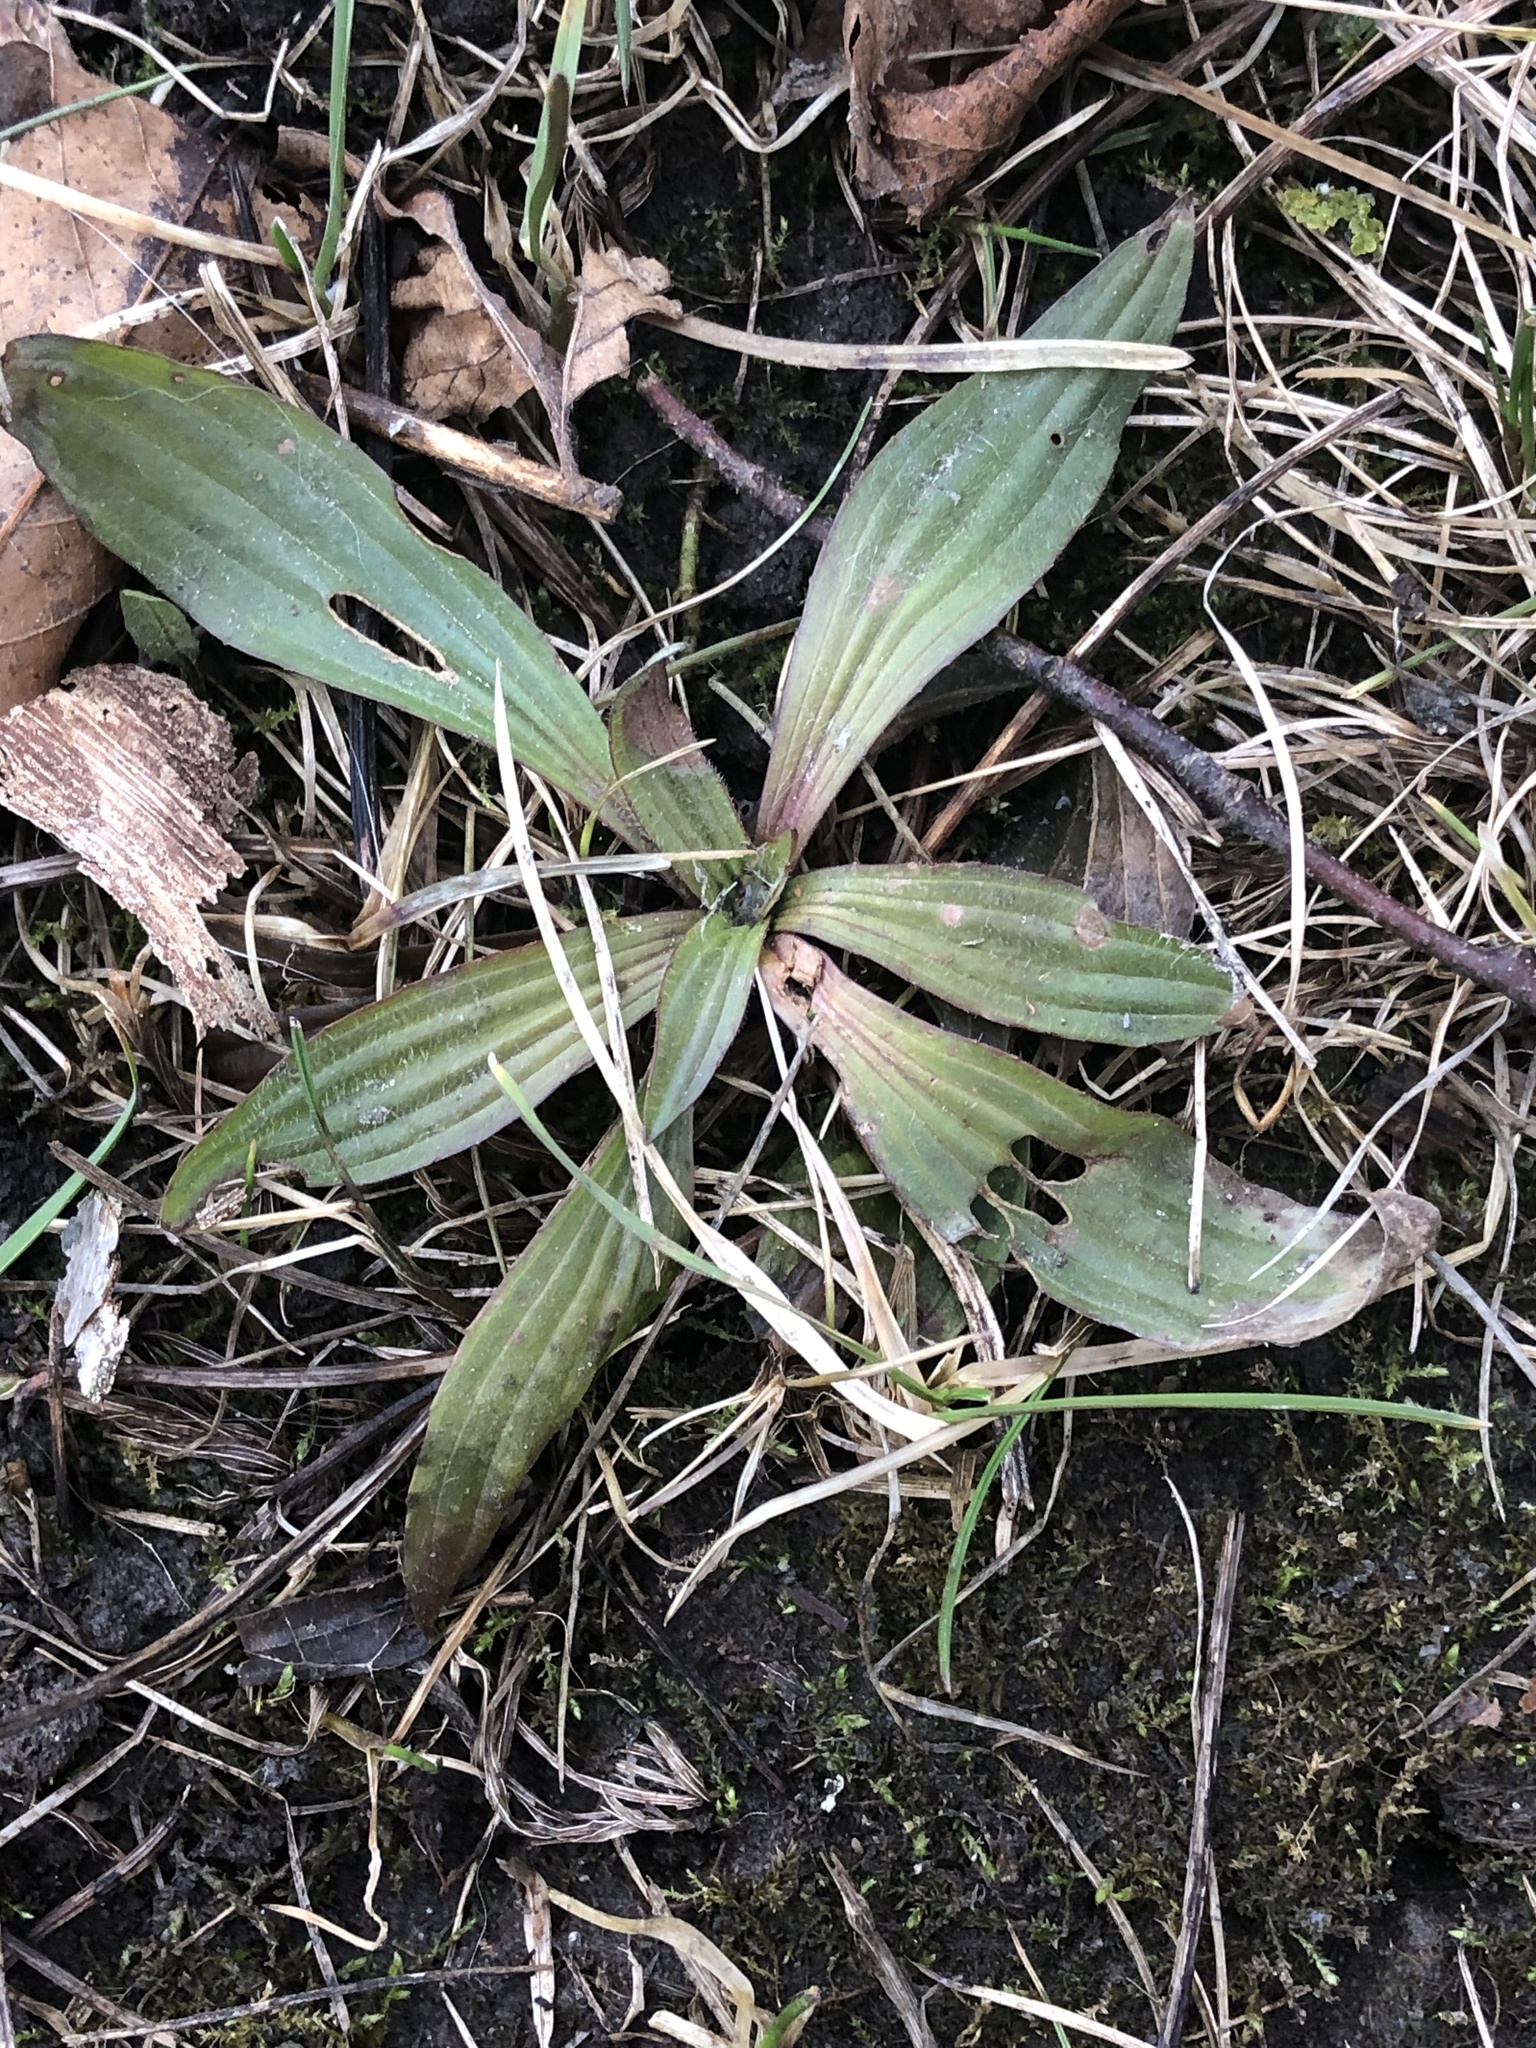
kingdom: Plantae
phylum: Tracheophyta
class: Magnoliopsida
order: Lamiales
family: Plantaginaceae
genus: Plantago
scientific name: Plantago lanceolata
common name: Ribwort plantain
